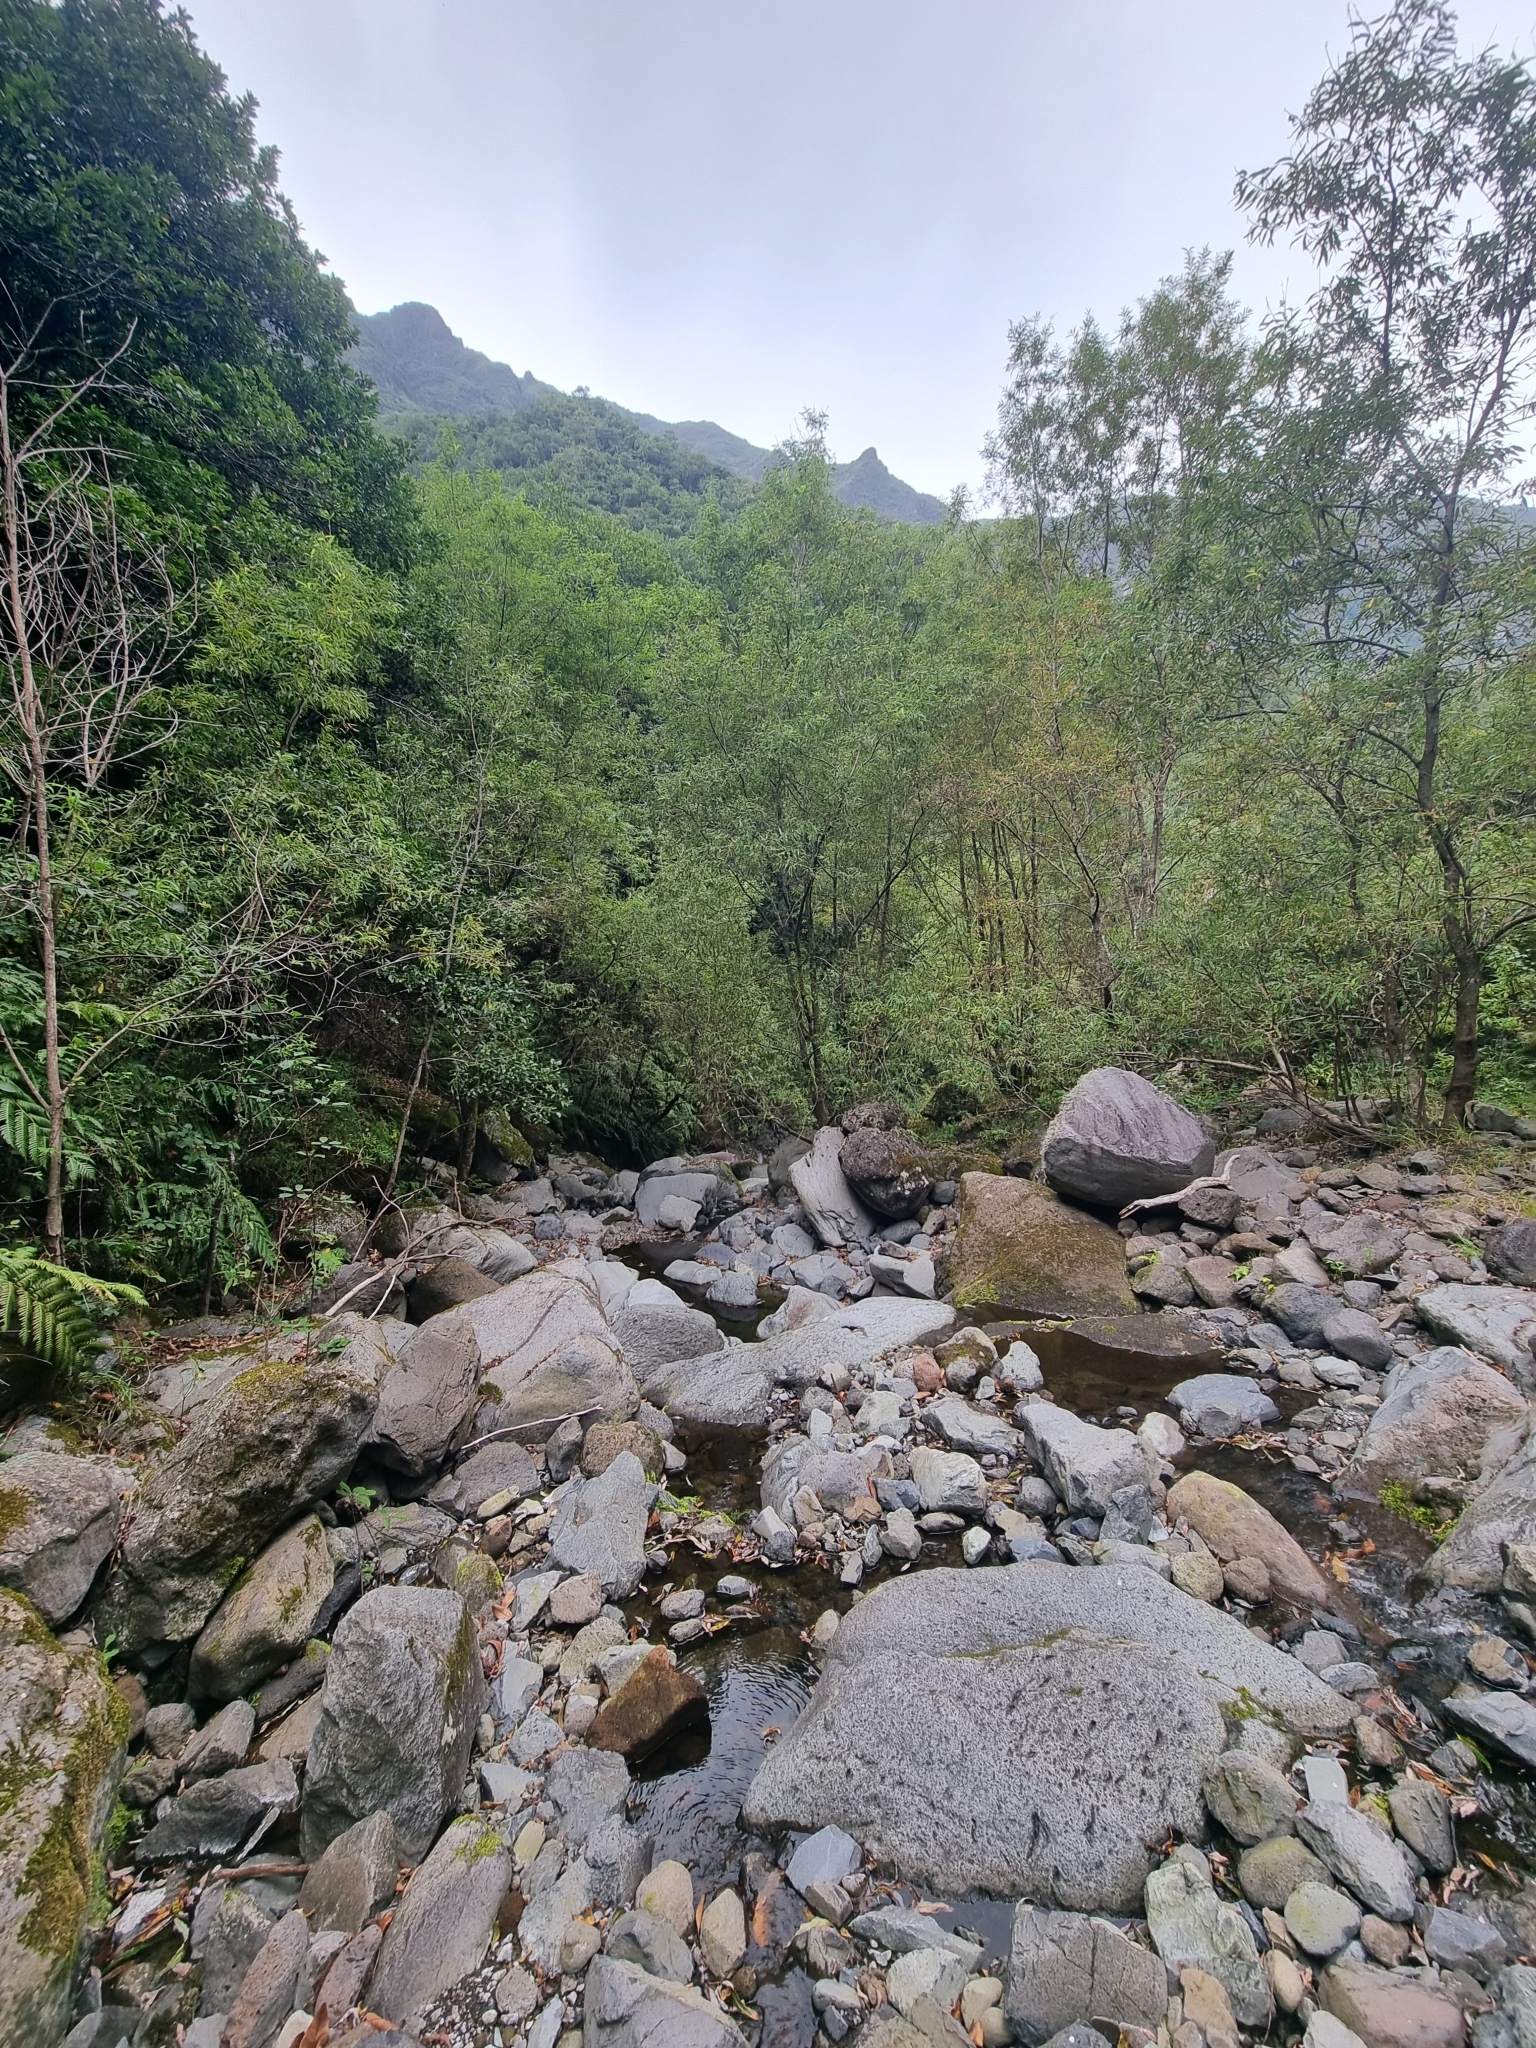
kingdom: Plantae
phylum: Tracheophyta
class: Magnoliopsida
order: Malpighiales
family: Salicaceae
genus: Salix
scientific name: Salix canariensis
